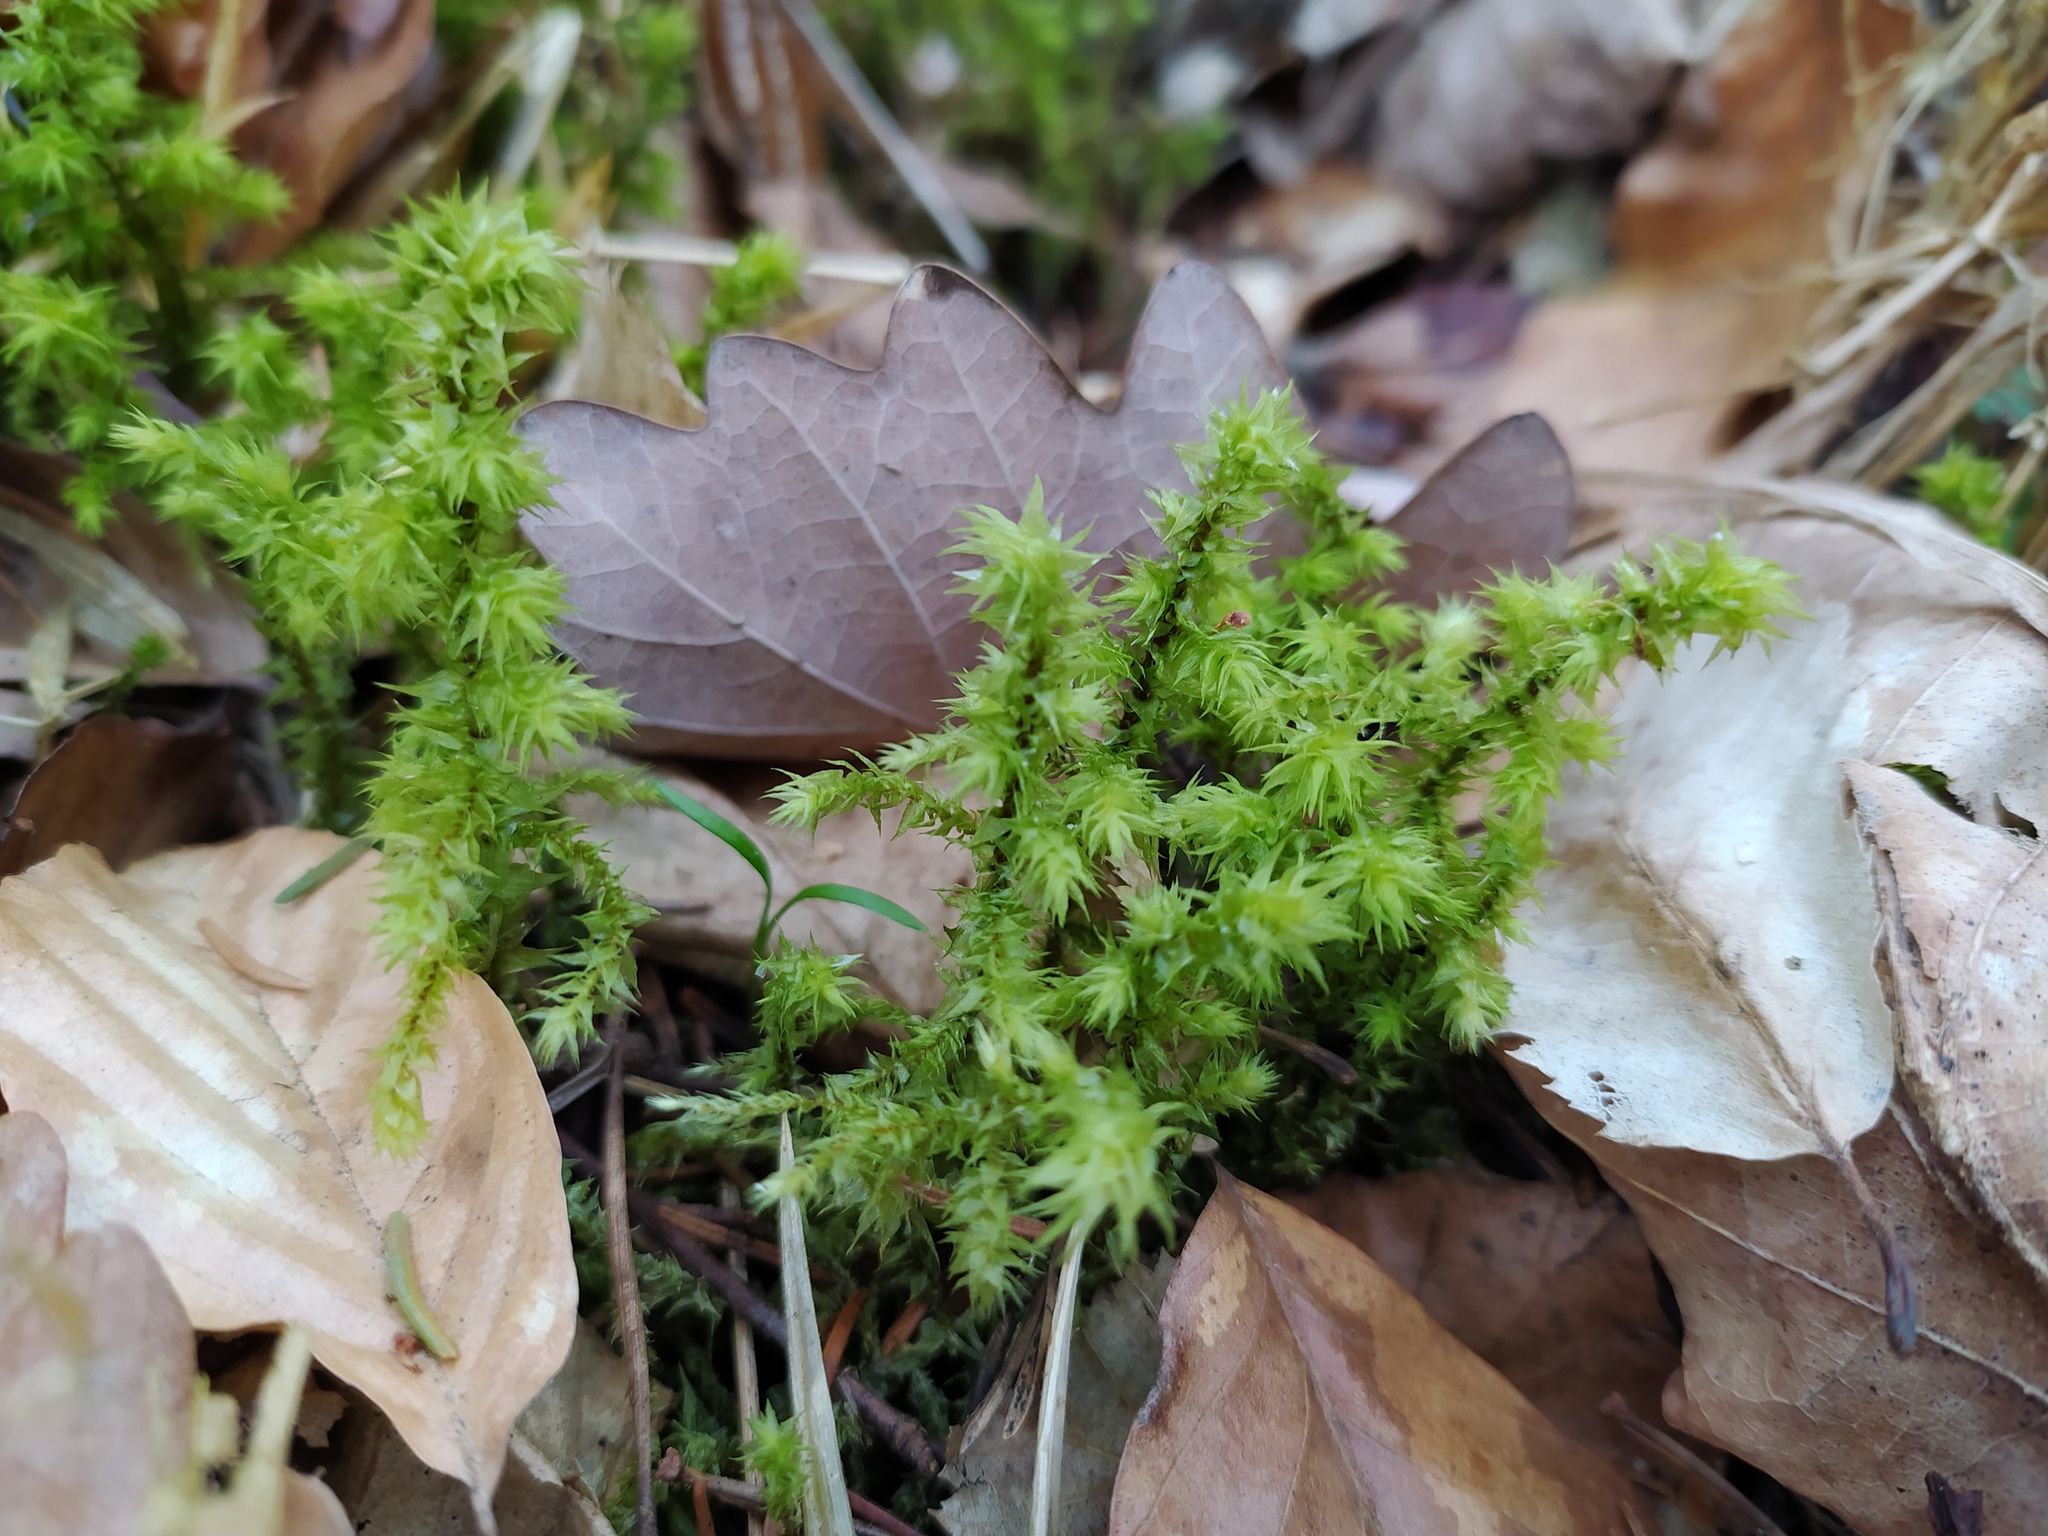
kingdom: Plantae
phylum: Bryophyta
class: Bryopsida
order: Hypnales
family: Hylocomiaceae
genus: Hylocomiadelphus
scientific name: Hylocomiadelphus triquetrus
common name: Rough goose neck moss
